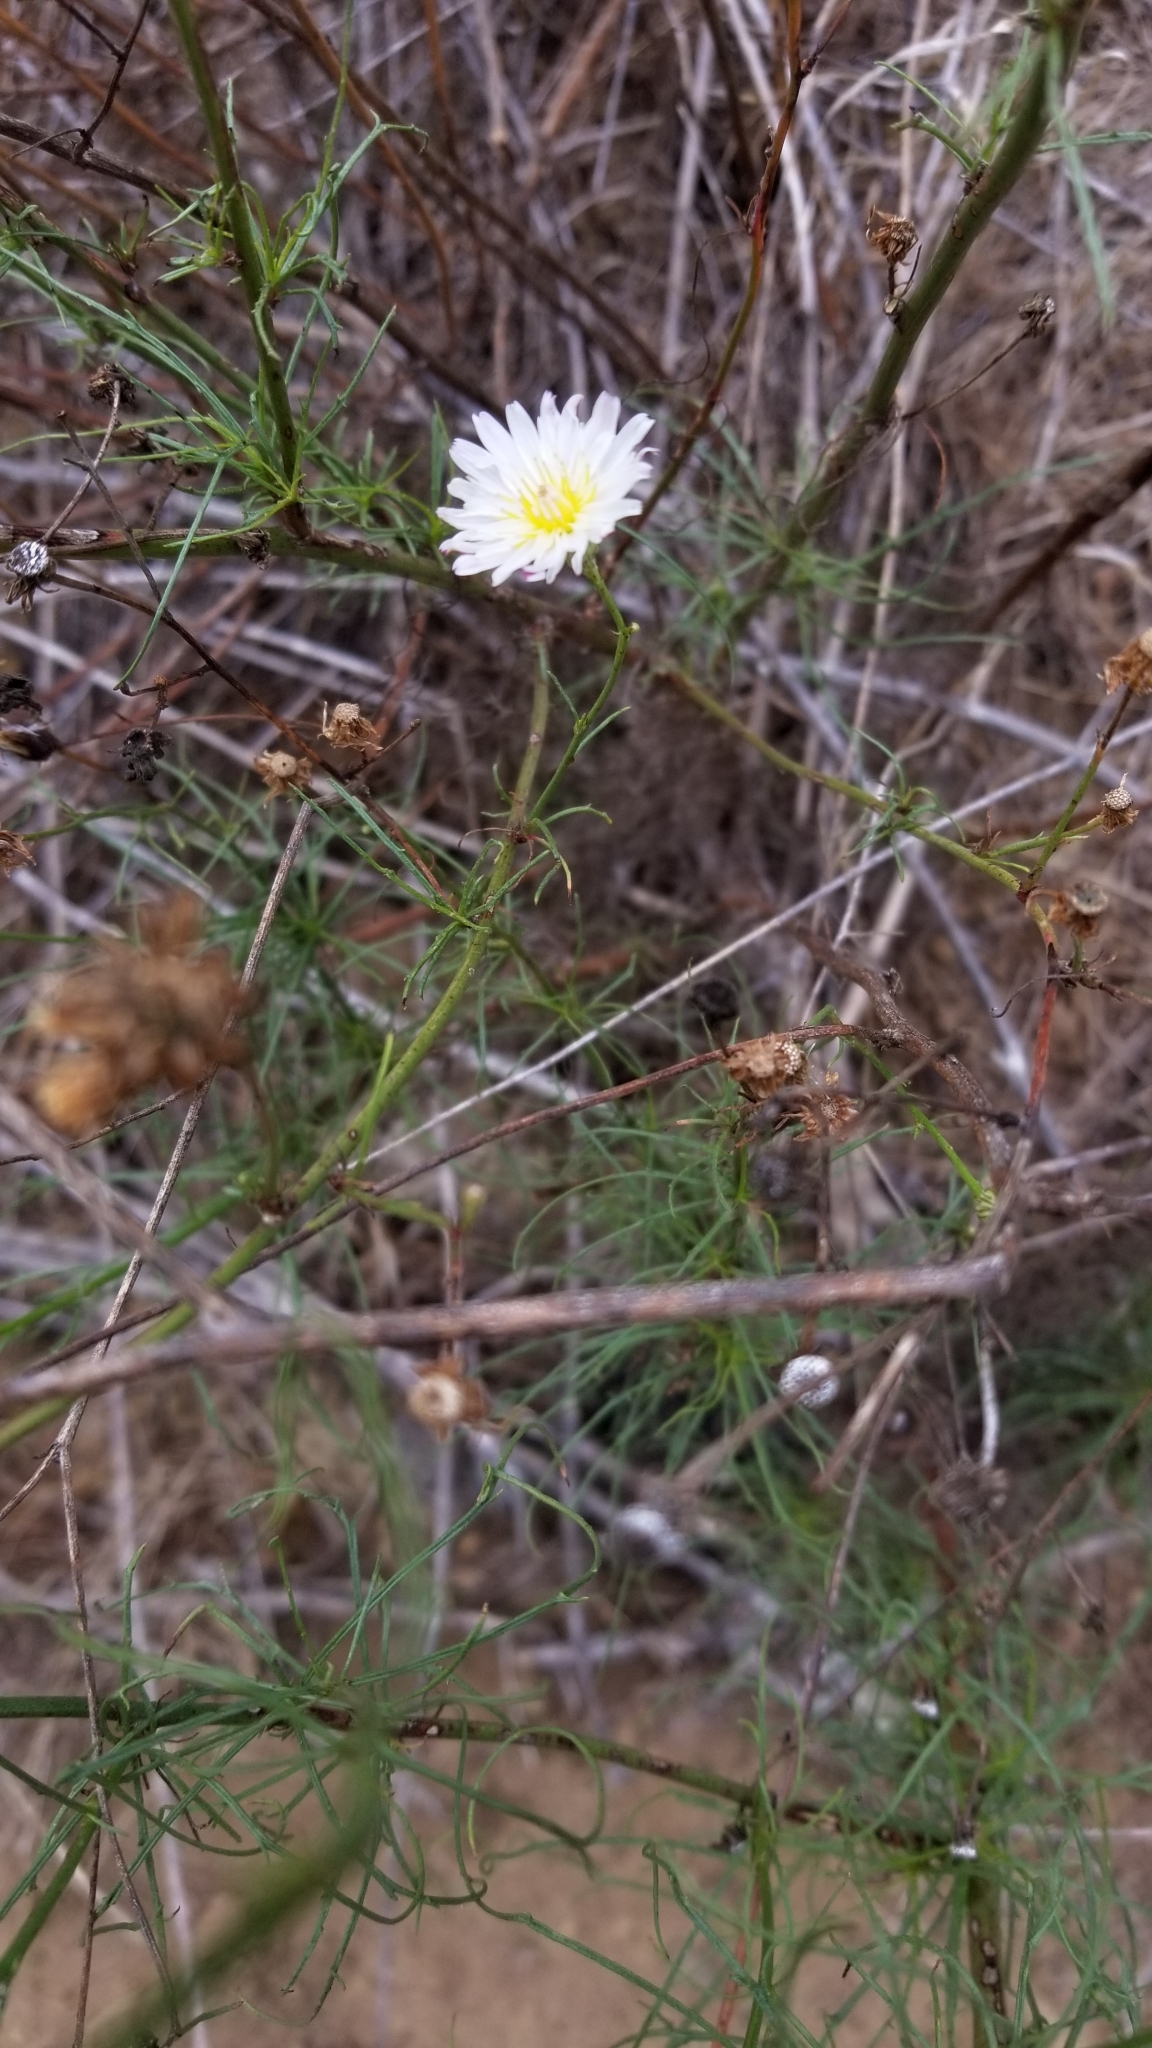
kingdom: Plantae
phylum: Tracheophyta
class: Magnoliopsida
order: Asterales
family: Asteraceae
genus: Malacothrix
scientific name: Malacothrix saxatilis
